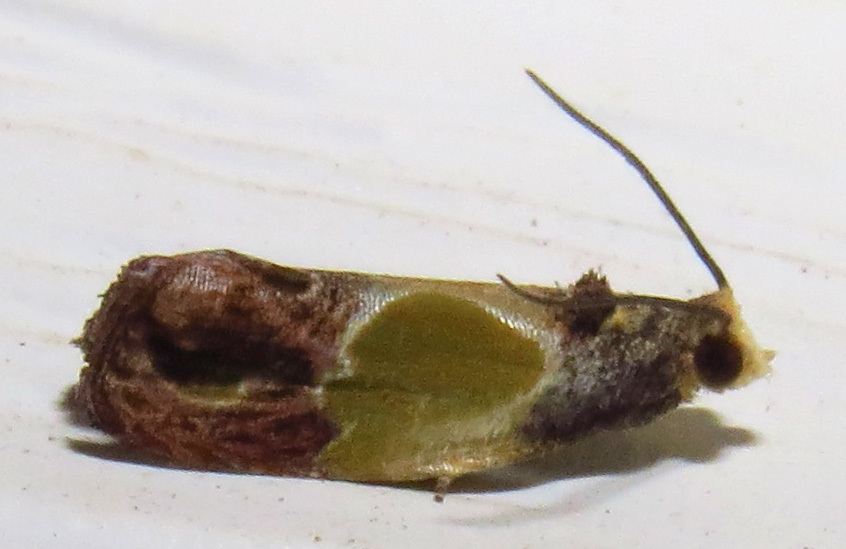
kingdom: Animalia
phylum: Arthropoda
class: Insecta
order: Lepidoptera
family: Tortricidae
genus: Eumarozia
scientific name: Eumarozia malachitana
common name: Sculptured moth
